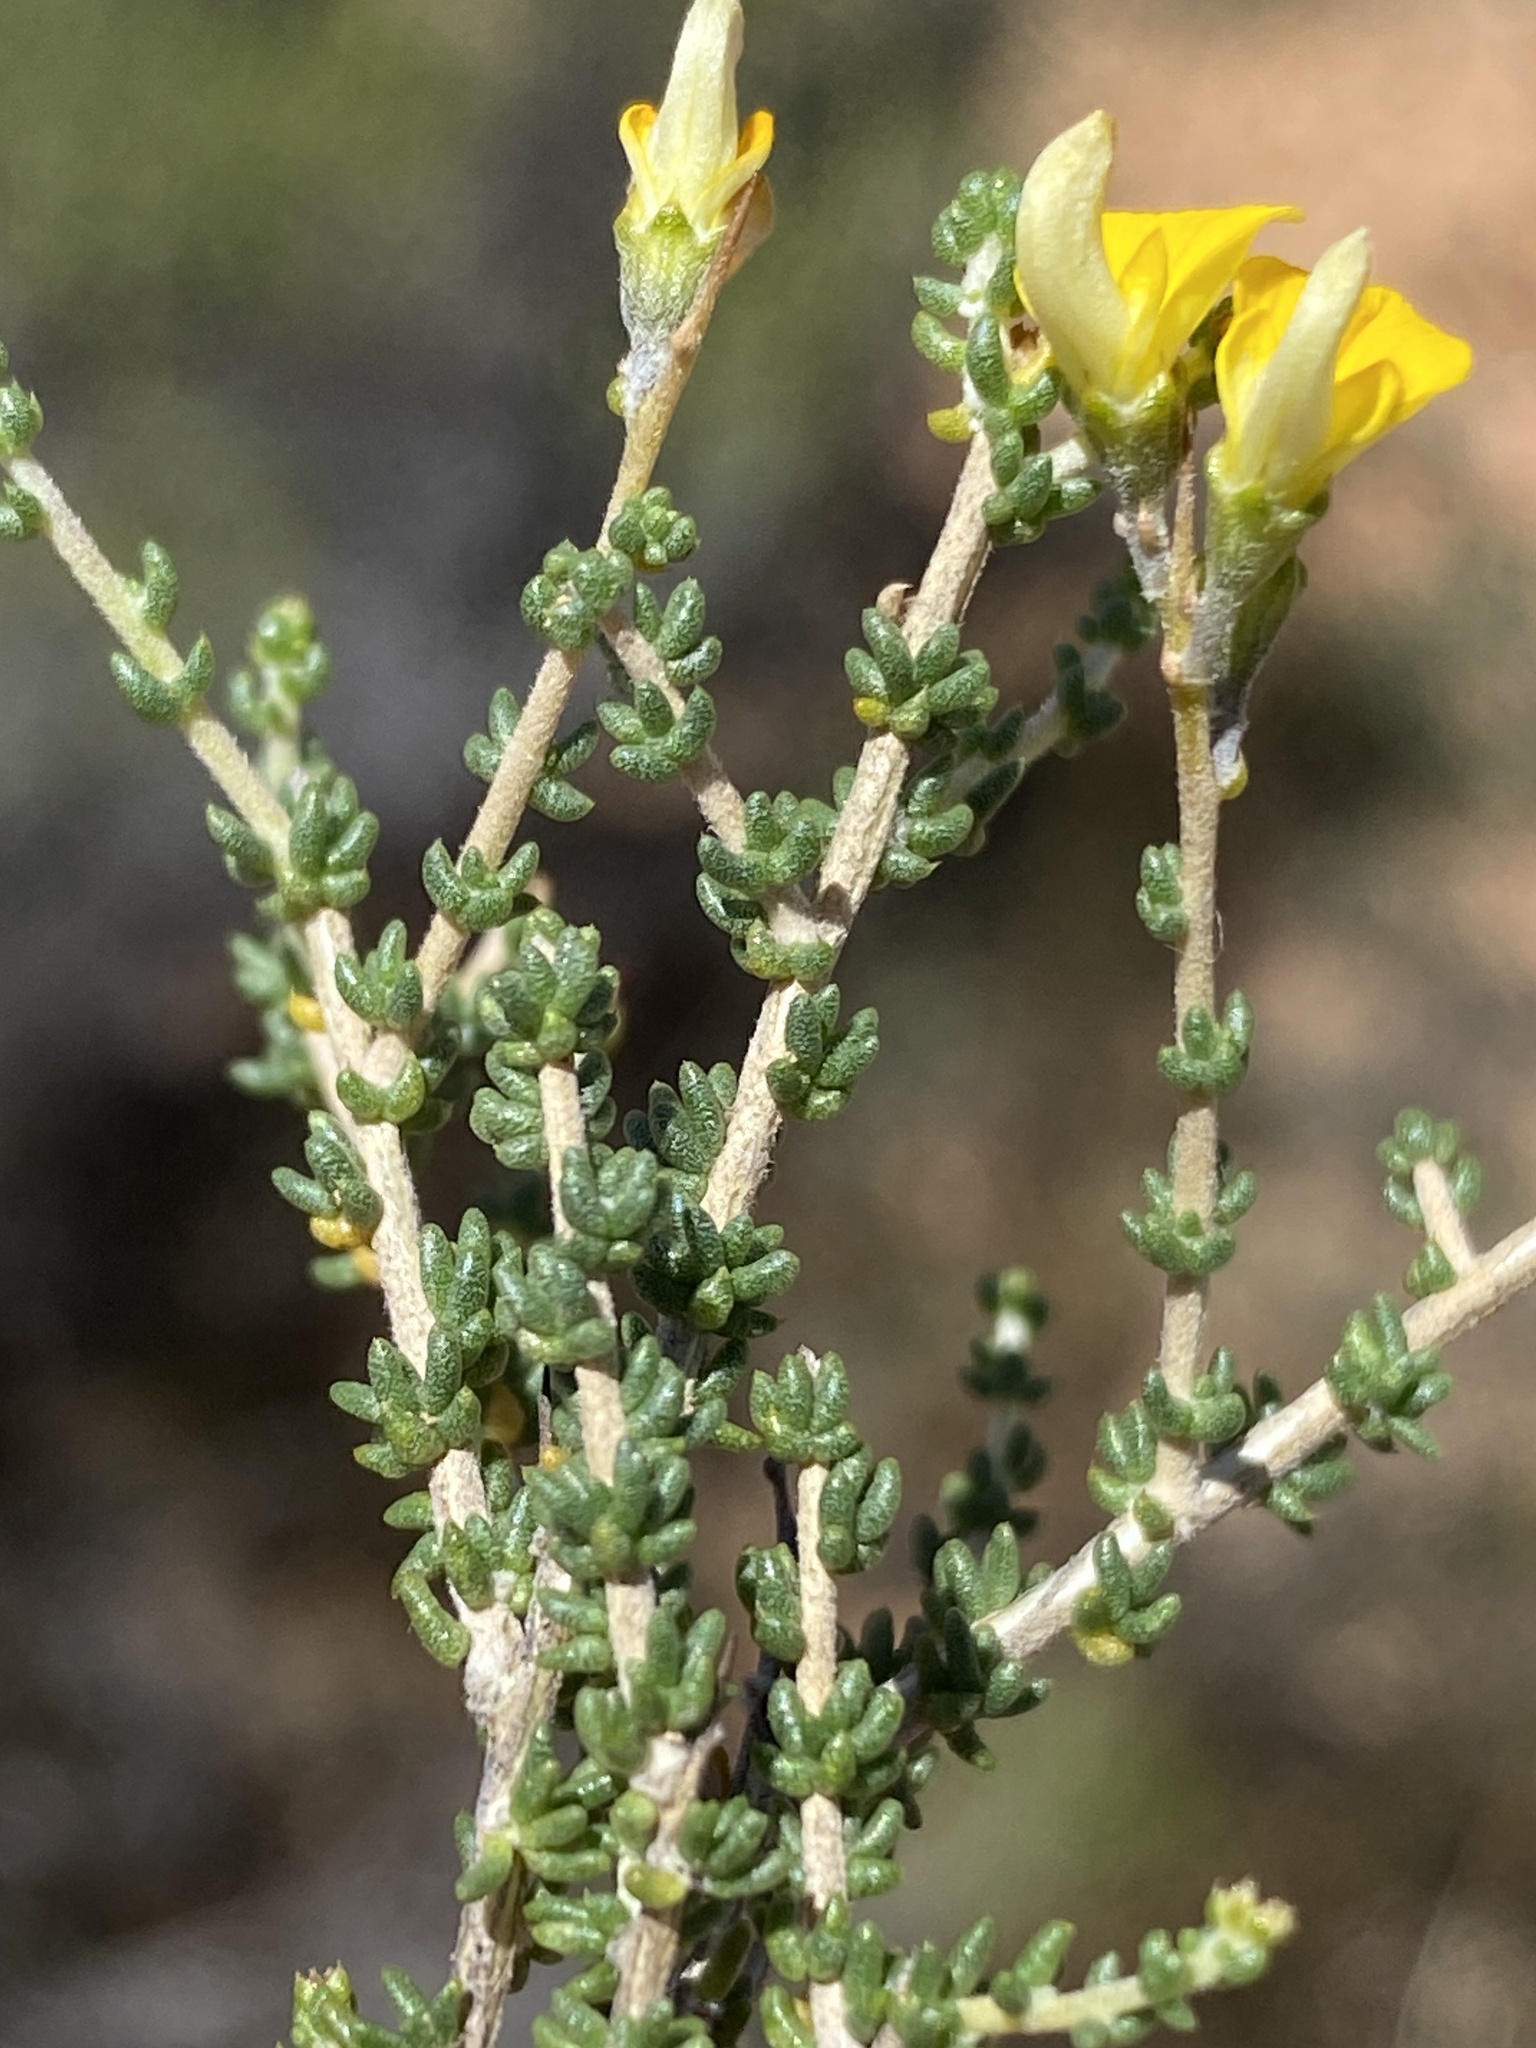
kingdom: Plantae
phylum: Tracheophyta
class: Magnoliopsida
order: Fabales
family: Fabaceae
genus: Aspalathus
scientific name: Aspalathus acuminata
